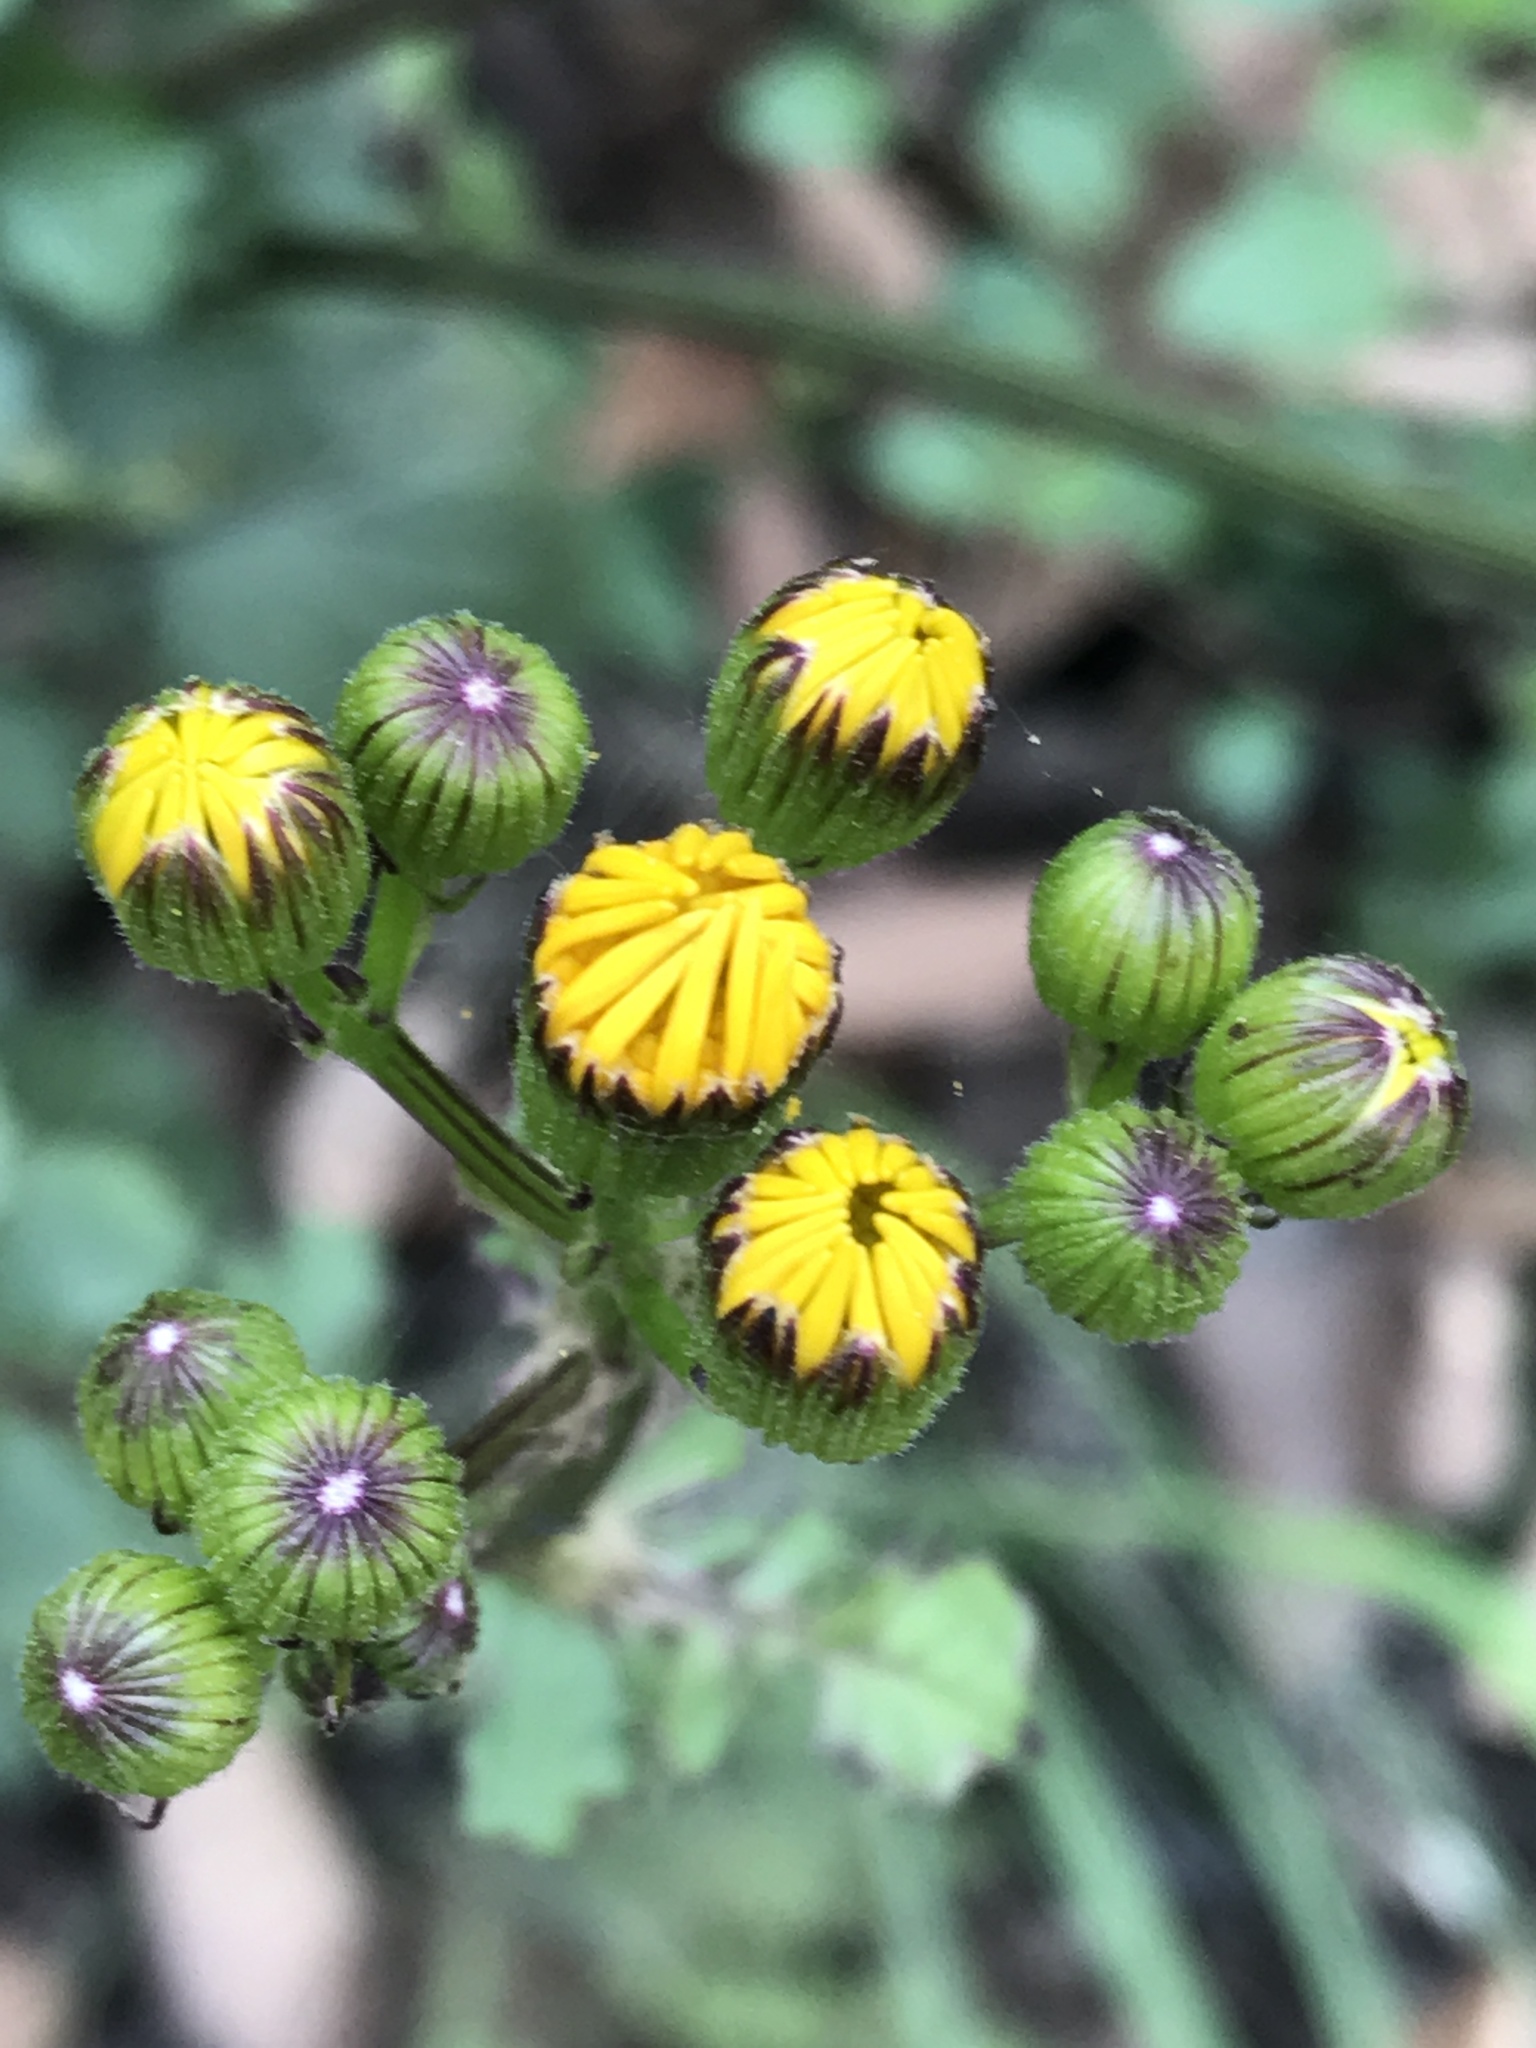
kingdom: Plantae
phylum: Tracheophyta
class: Magnoliopsida
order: Asterales
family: Asteraceae
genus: Packera
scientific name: Packera coahuilensis
